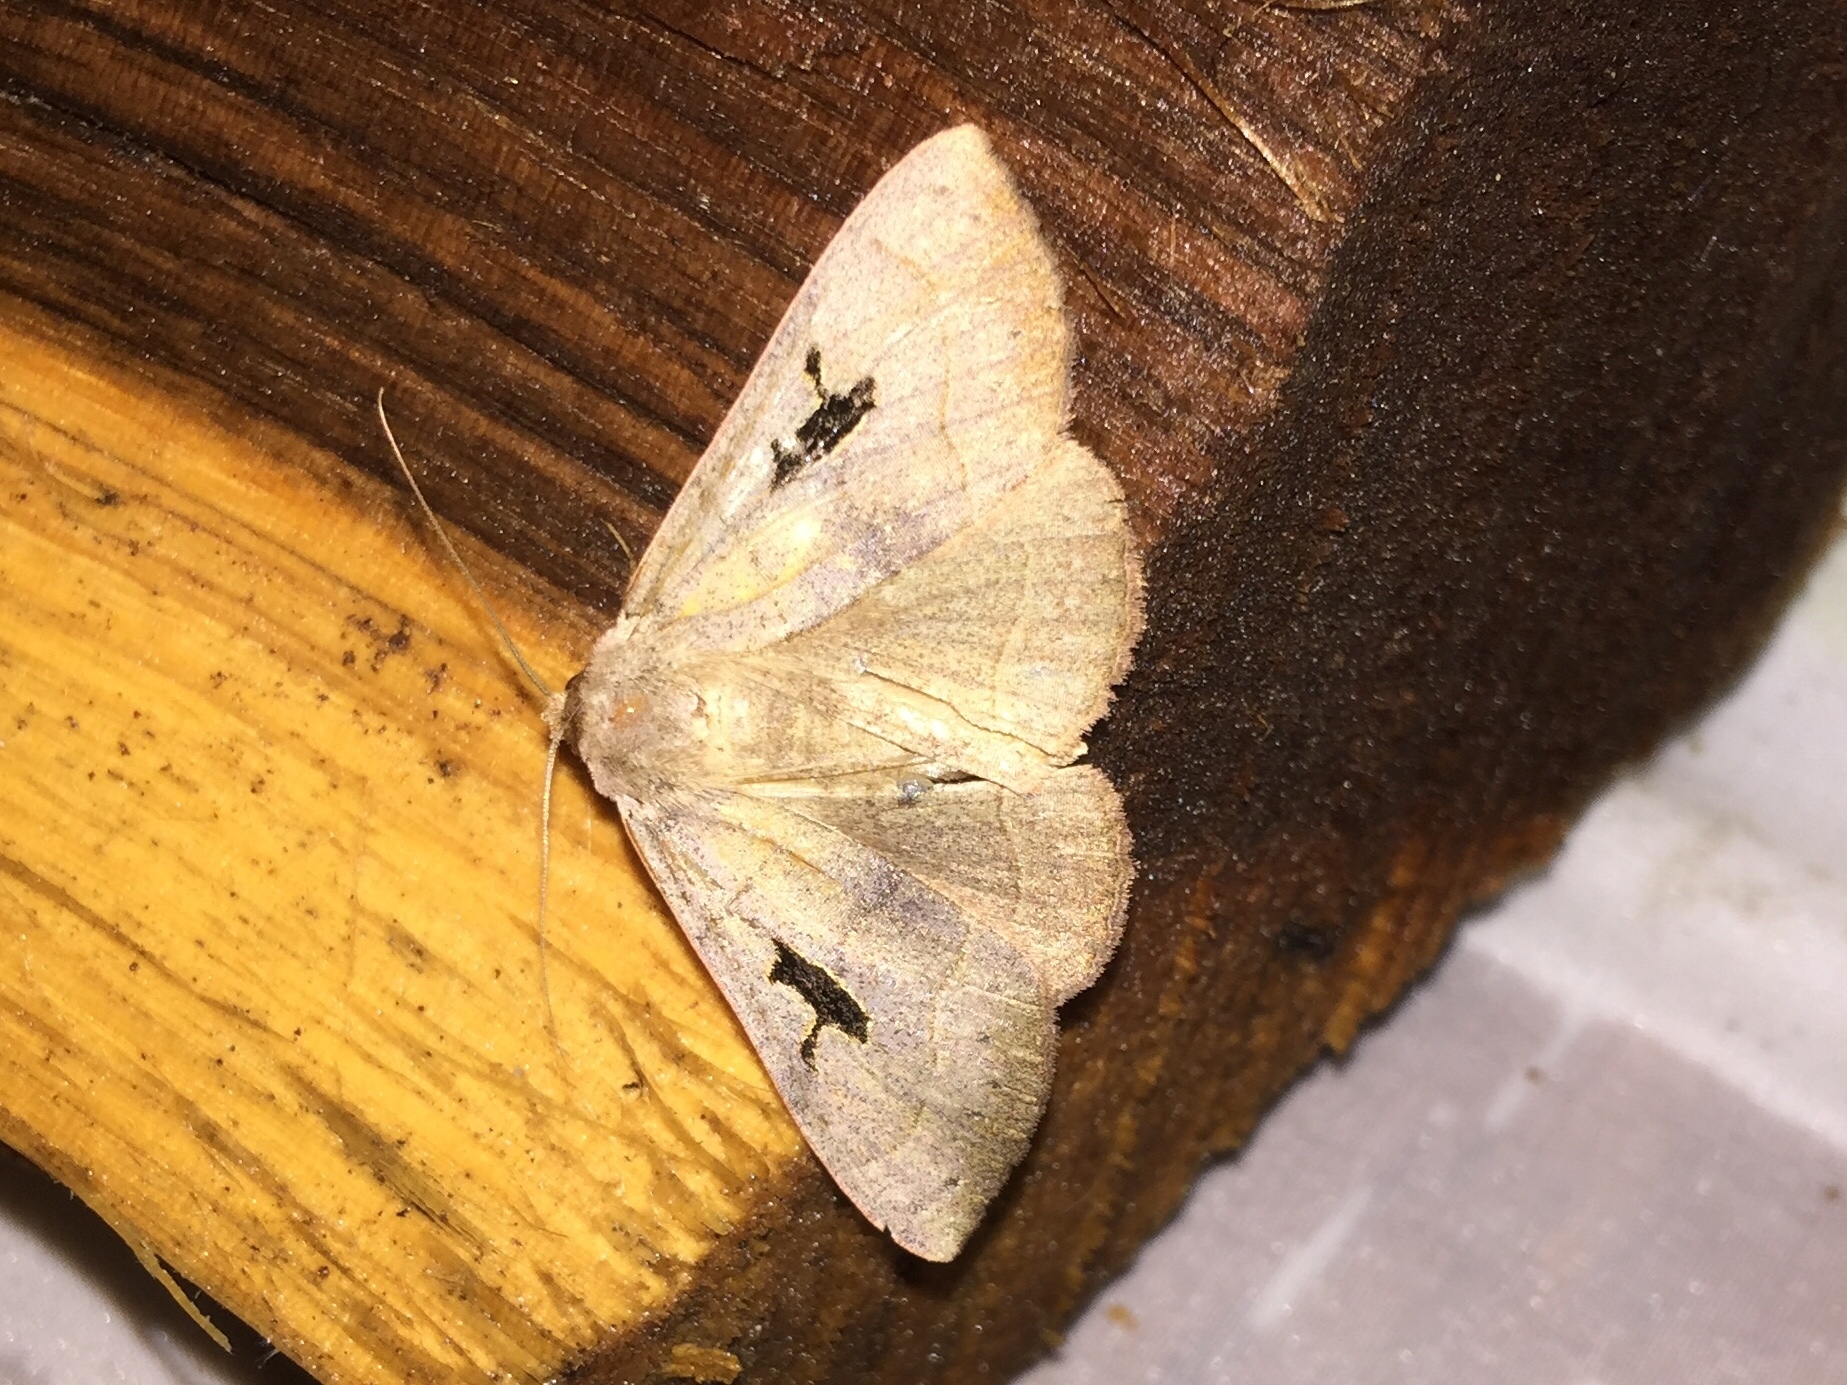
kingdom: Animalia
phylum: Arthropoda
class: Insecta
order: Lepidoptera
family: Erebidae
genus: Panopoda
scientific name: Panopoda carneicosta
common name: Brown panopoda moth
